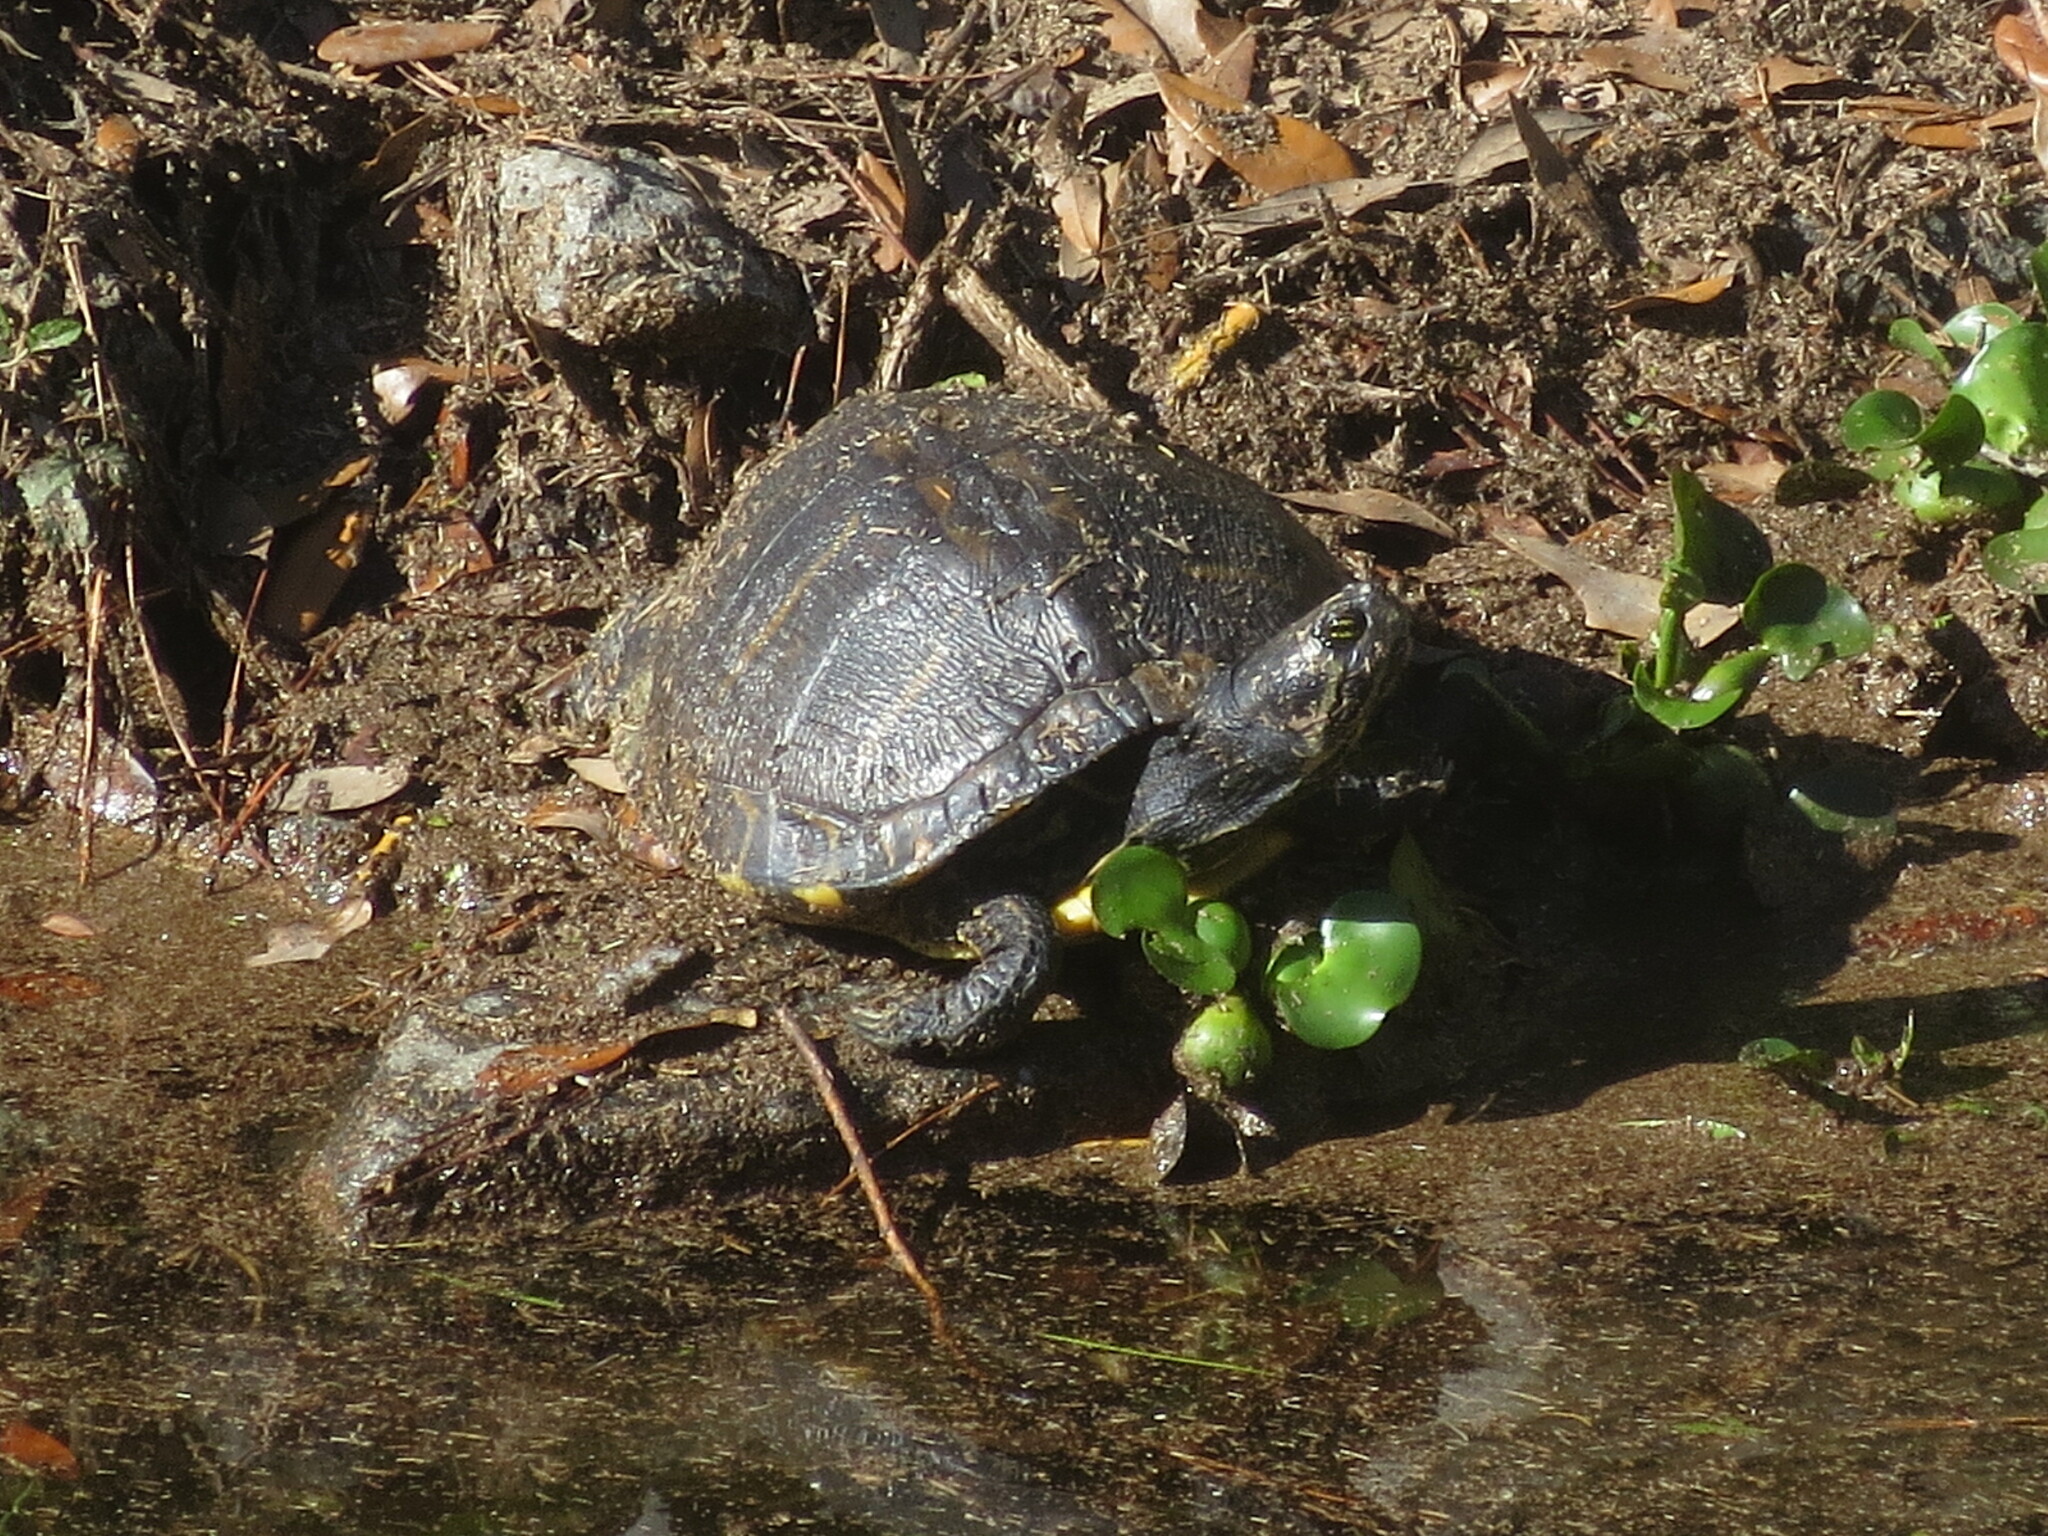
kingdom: Animalia
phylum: Chordata
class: Testudines
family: Emydidae
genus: Trachemys
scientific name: Trachemys scripta
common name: Slider
